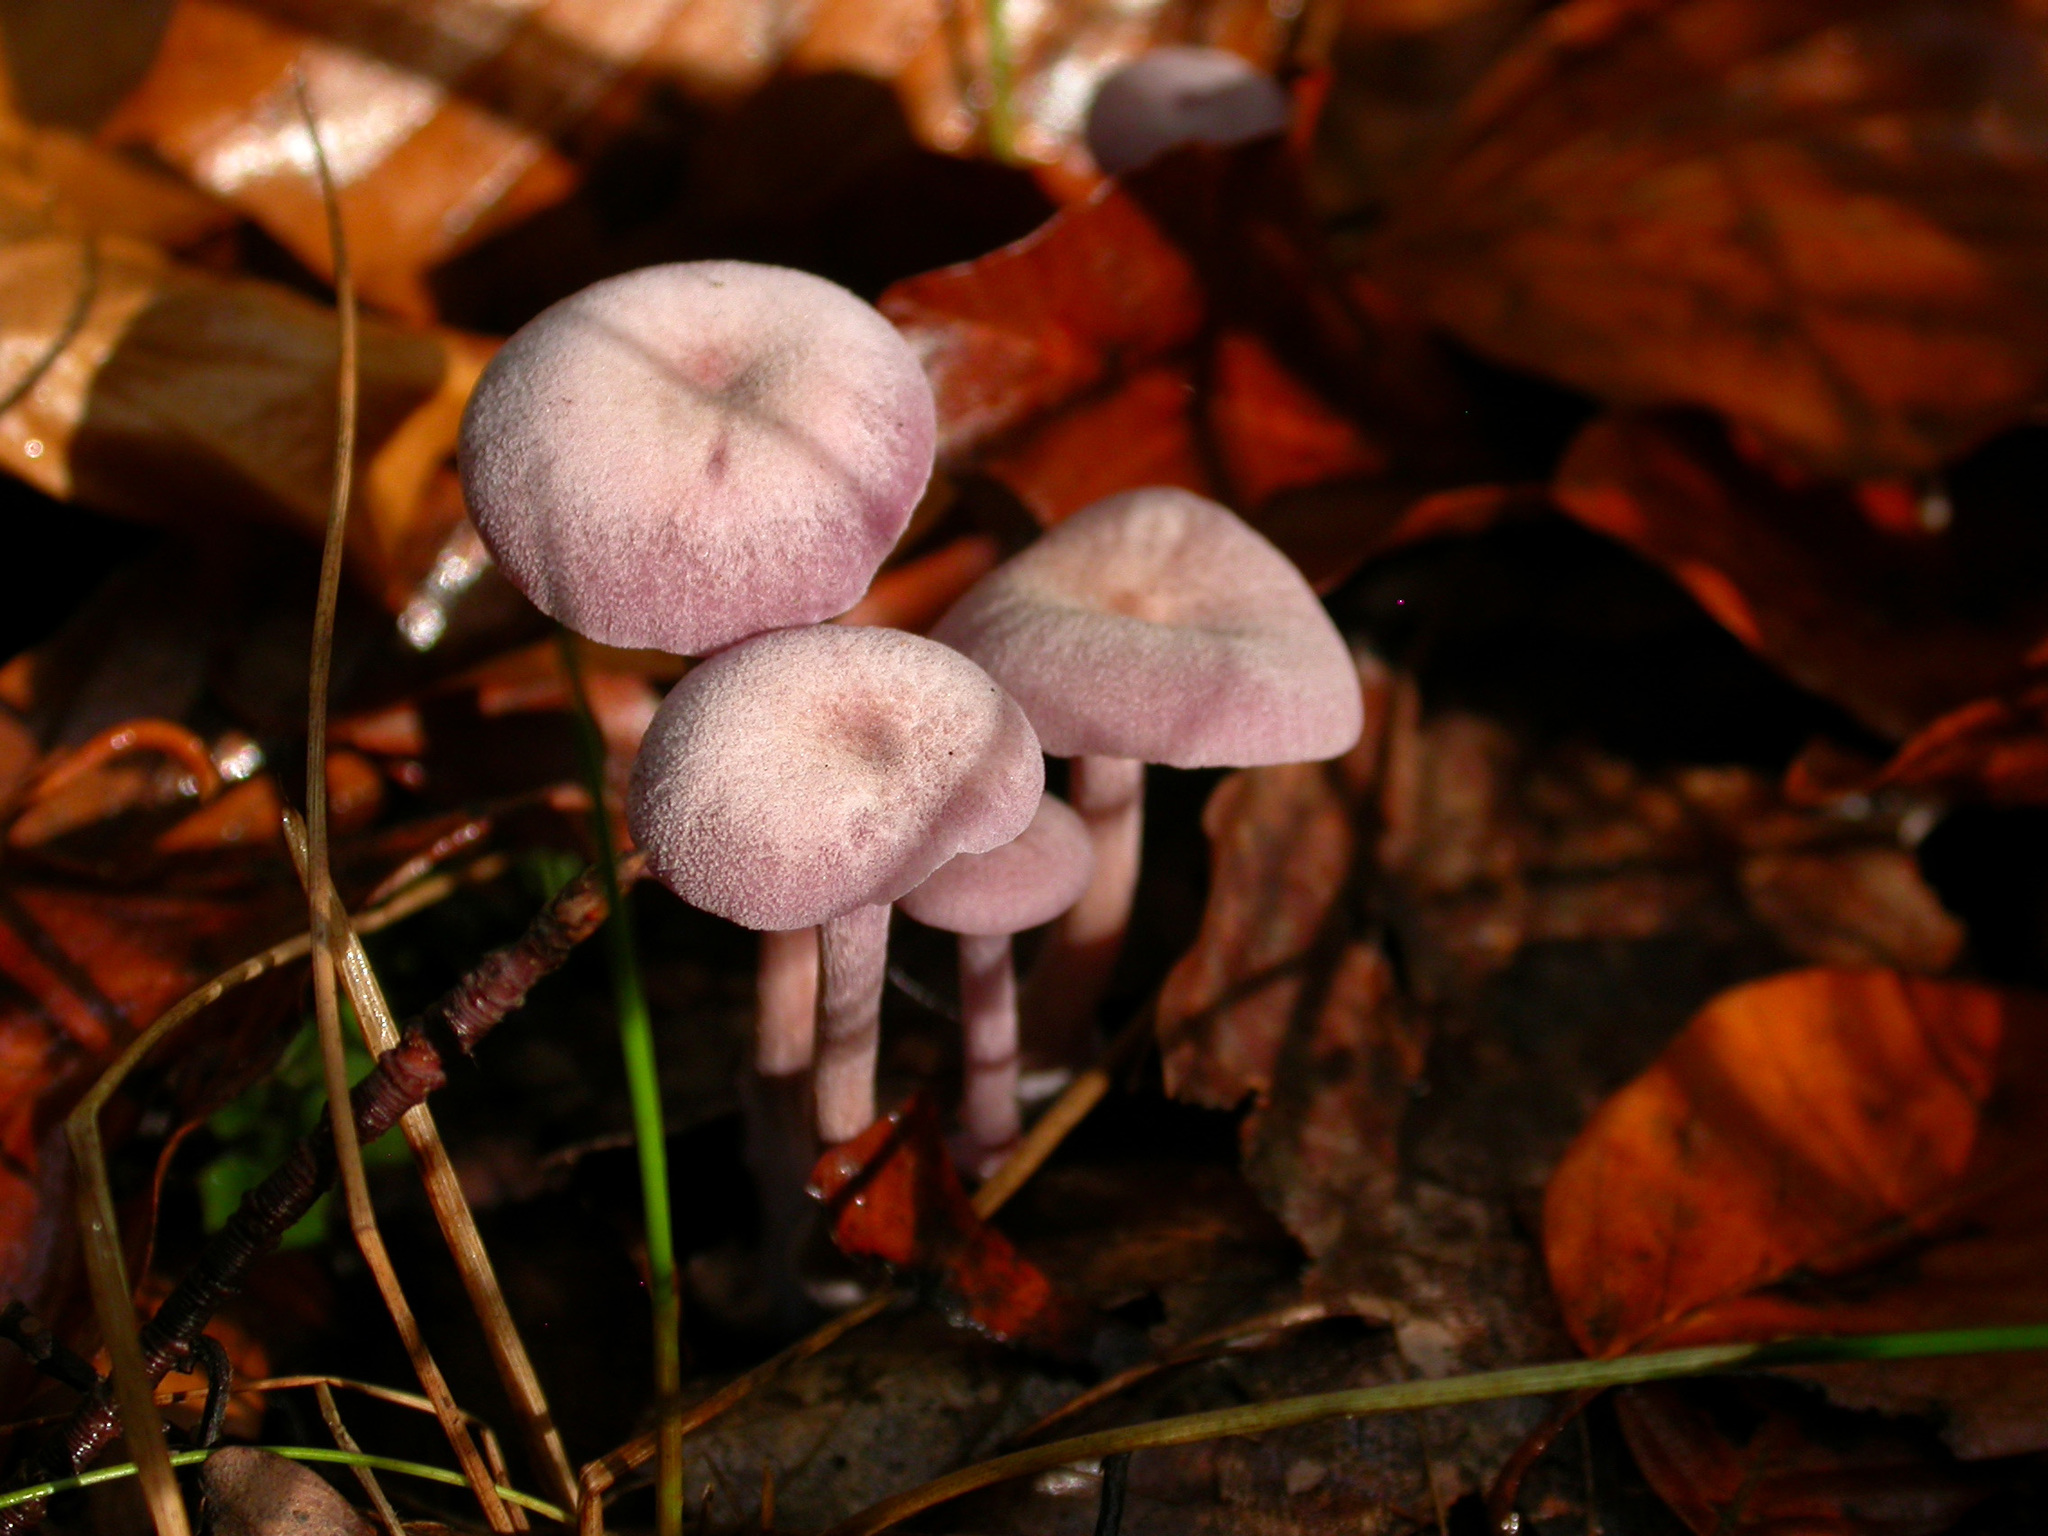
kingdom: Fungi
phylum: Basidiomycota
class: Agaricomycetes
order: Agaricales
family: Hydnangiaceae
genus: Laccaria
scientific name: Laccaria amethystina
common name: Amethyst deceiver
